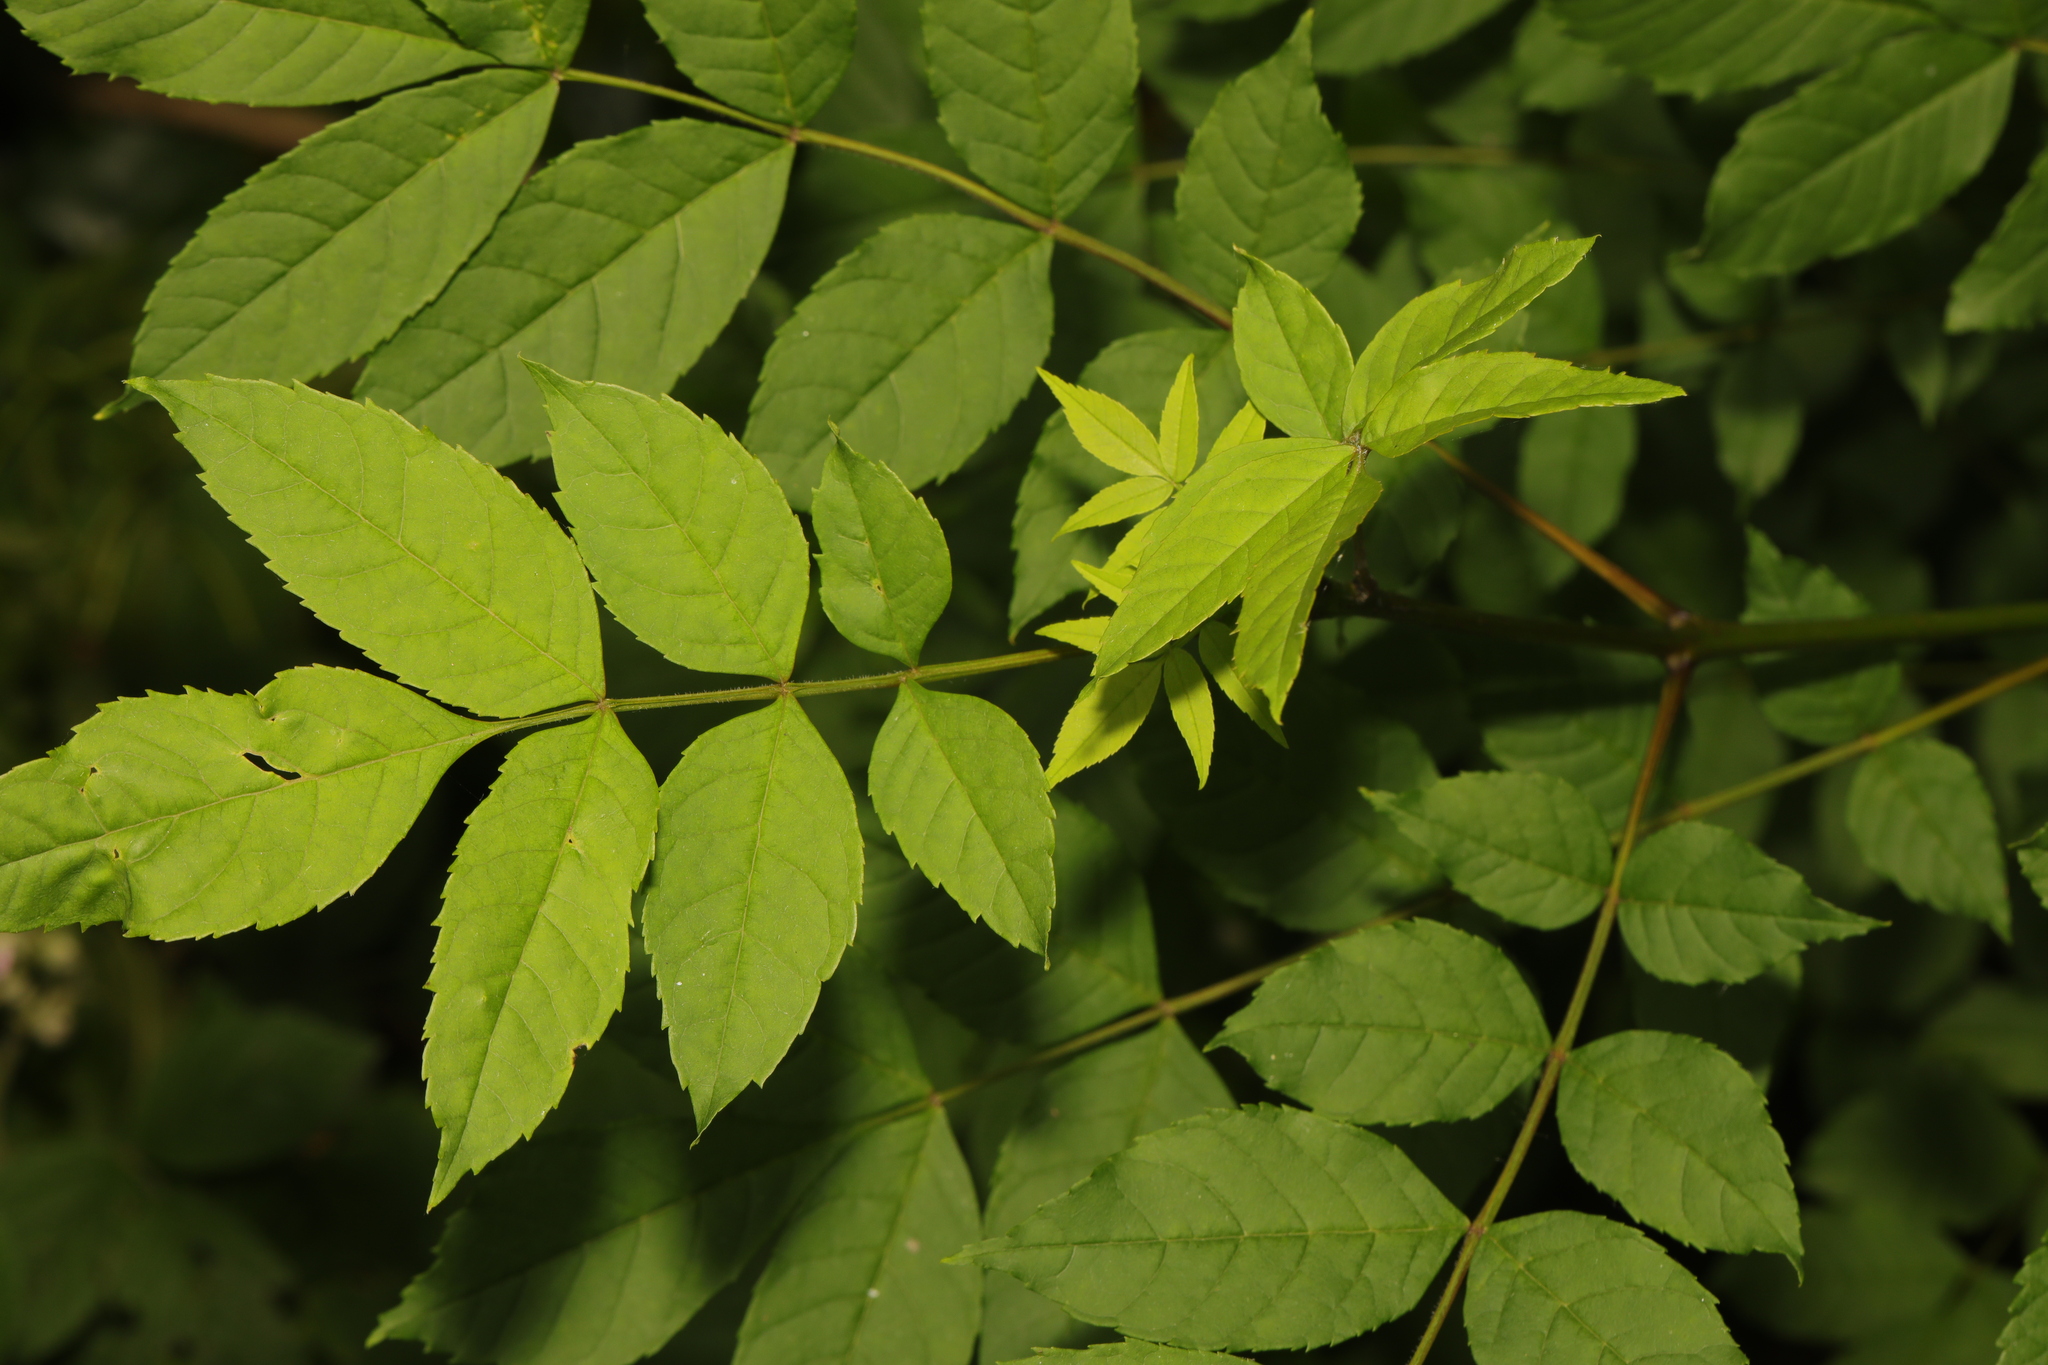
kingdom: Plantae
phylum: Tracheophyta
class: Magnoliopsida
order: Lamiales
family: Oleaceae
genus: Fraxinus
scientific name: Fraxinus excelsior
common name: European ash
